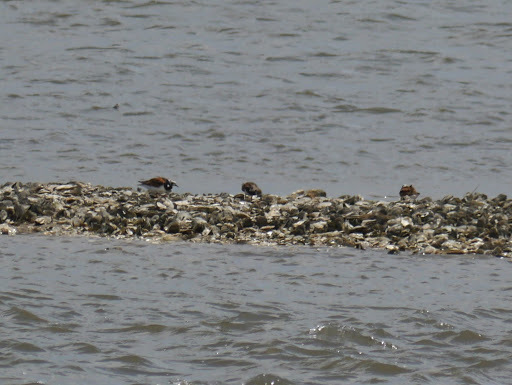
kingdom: Animalia
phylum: Chordata
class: Aves
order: Charadriiformes
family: Scolopacidae
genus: Arenaria
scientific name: Arenaria interpres
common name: Ruddy turnstone
